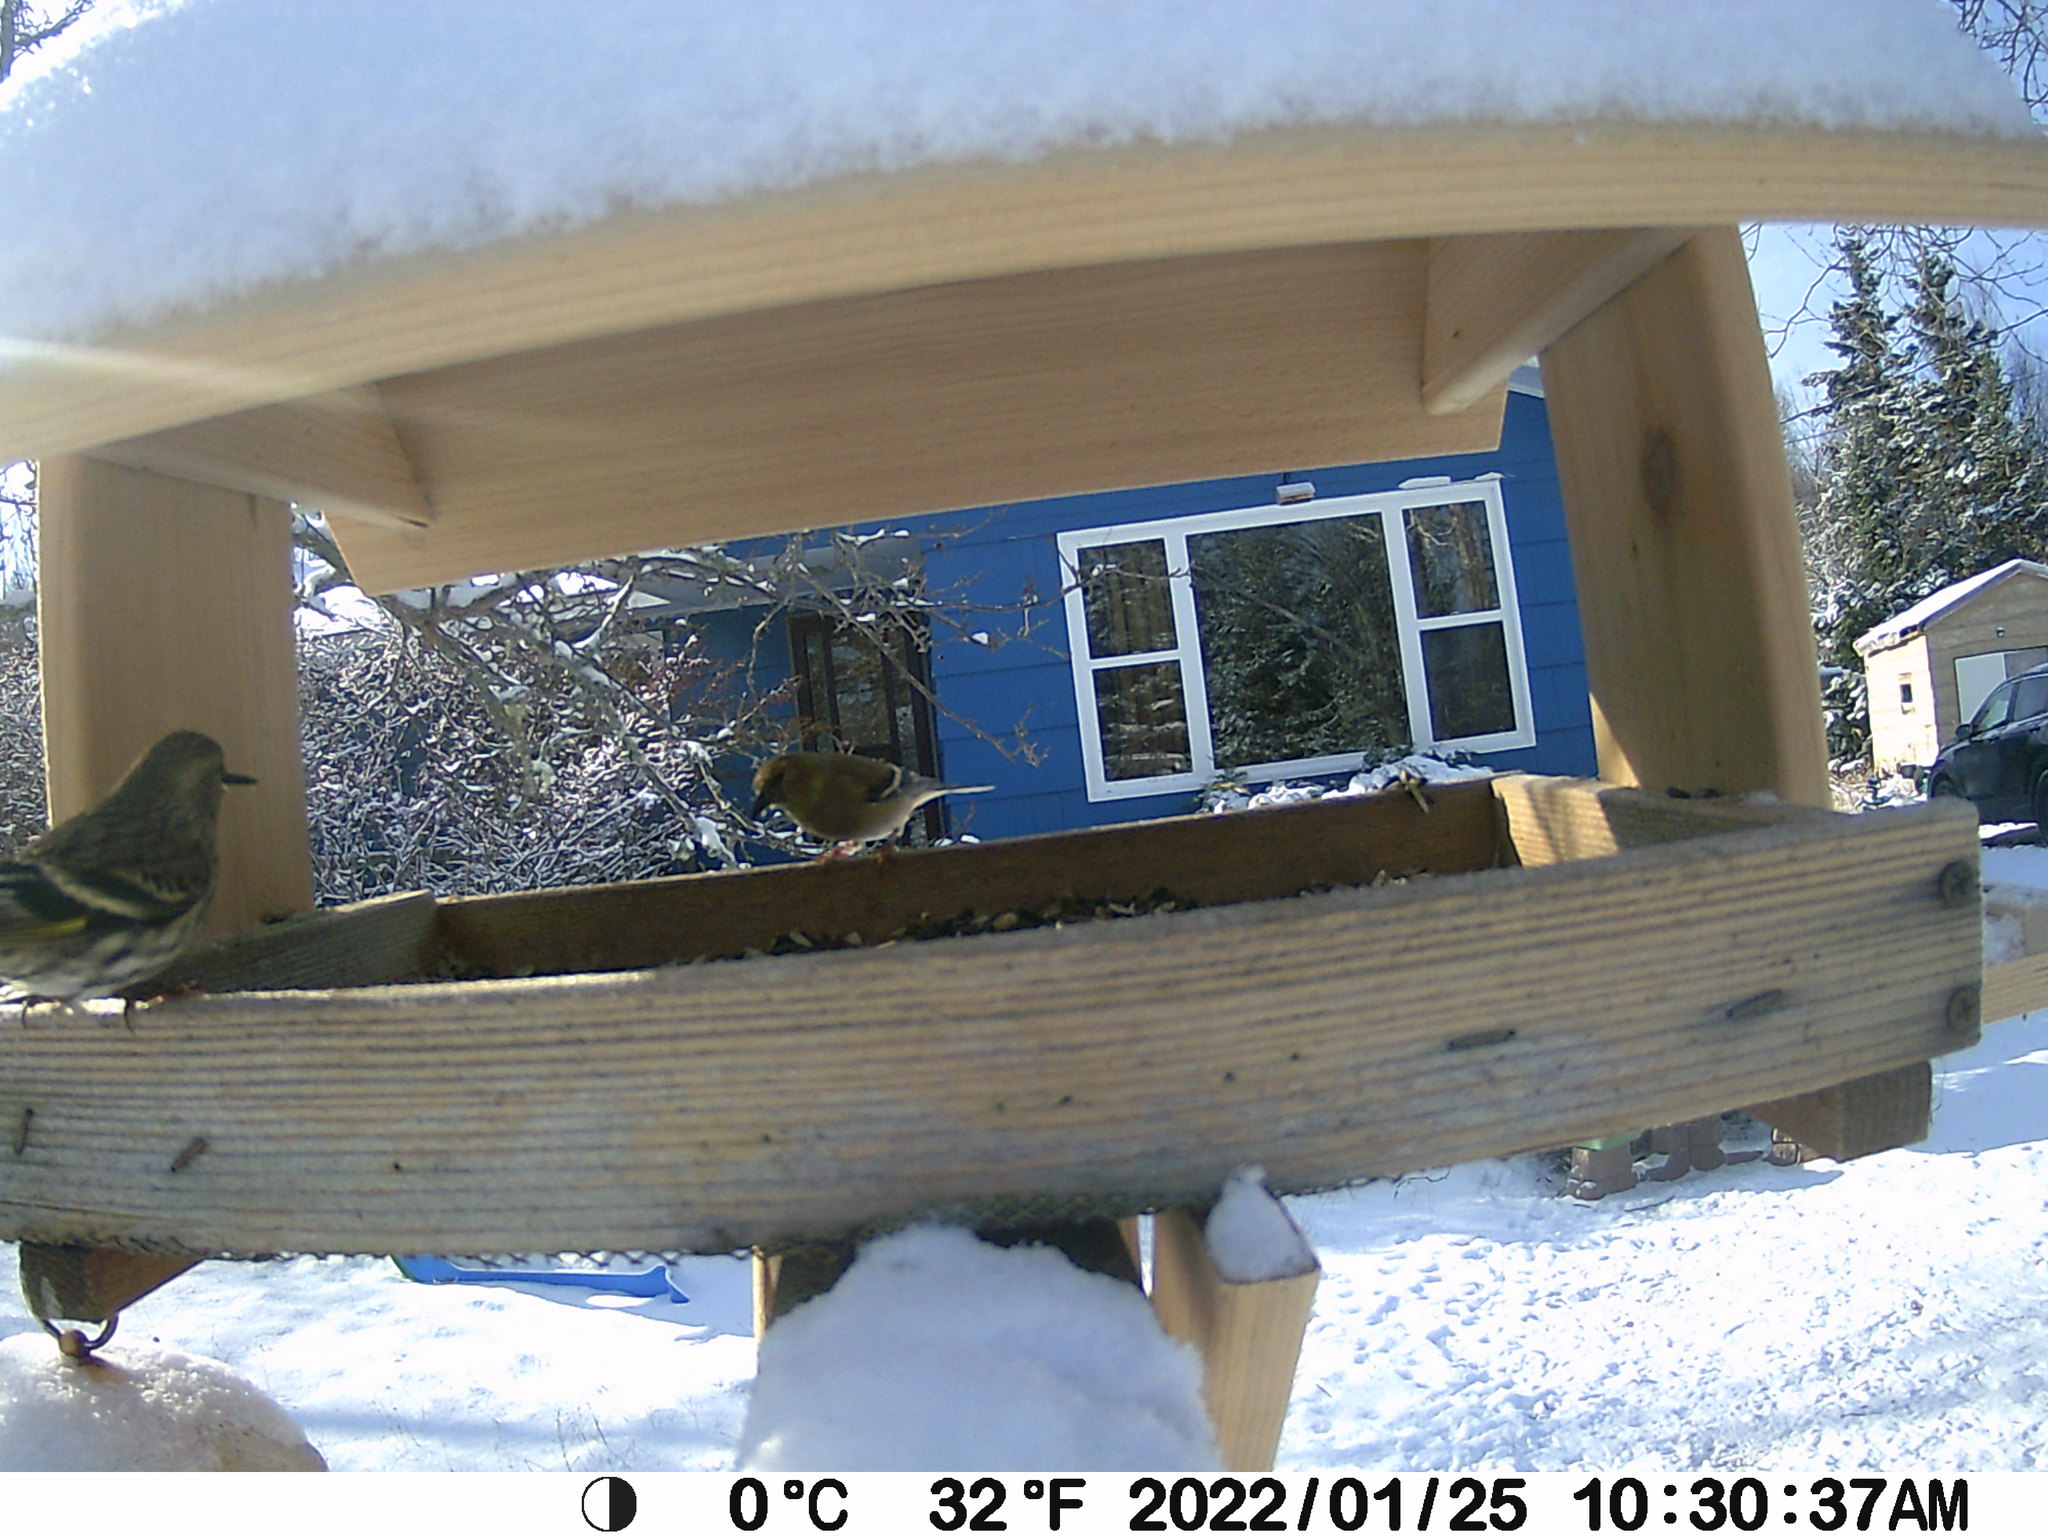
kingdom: Animalia
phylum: Chordata
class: Aves
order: Passeriformes
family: Fringillidae
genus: Spinus
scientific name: Spinus pinus
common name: Pine siskin
